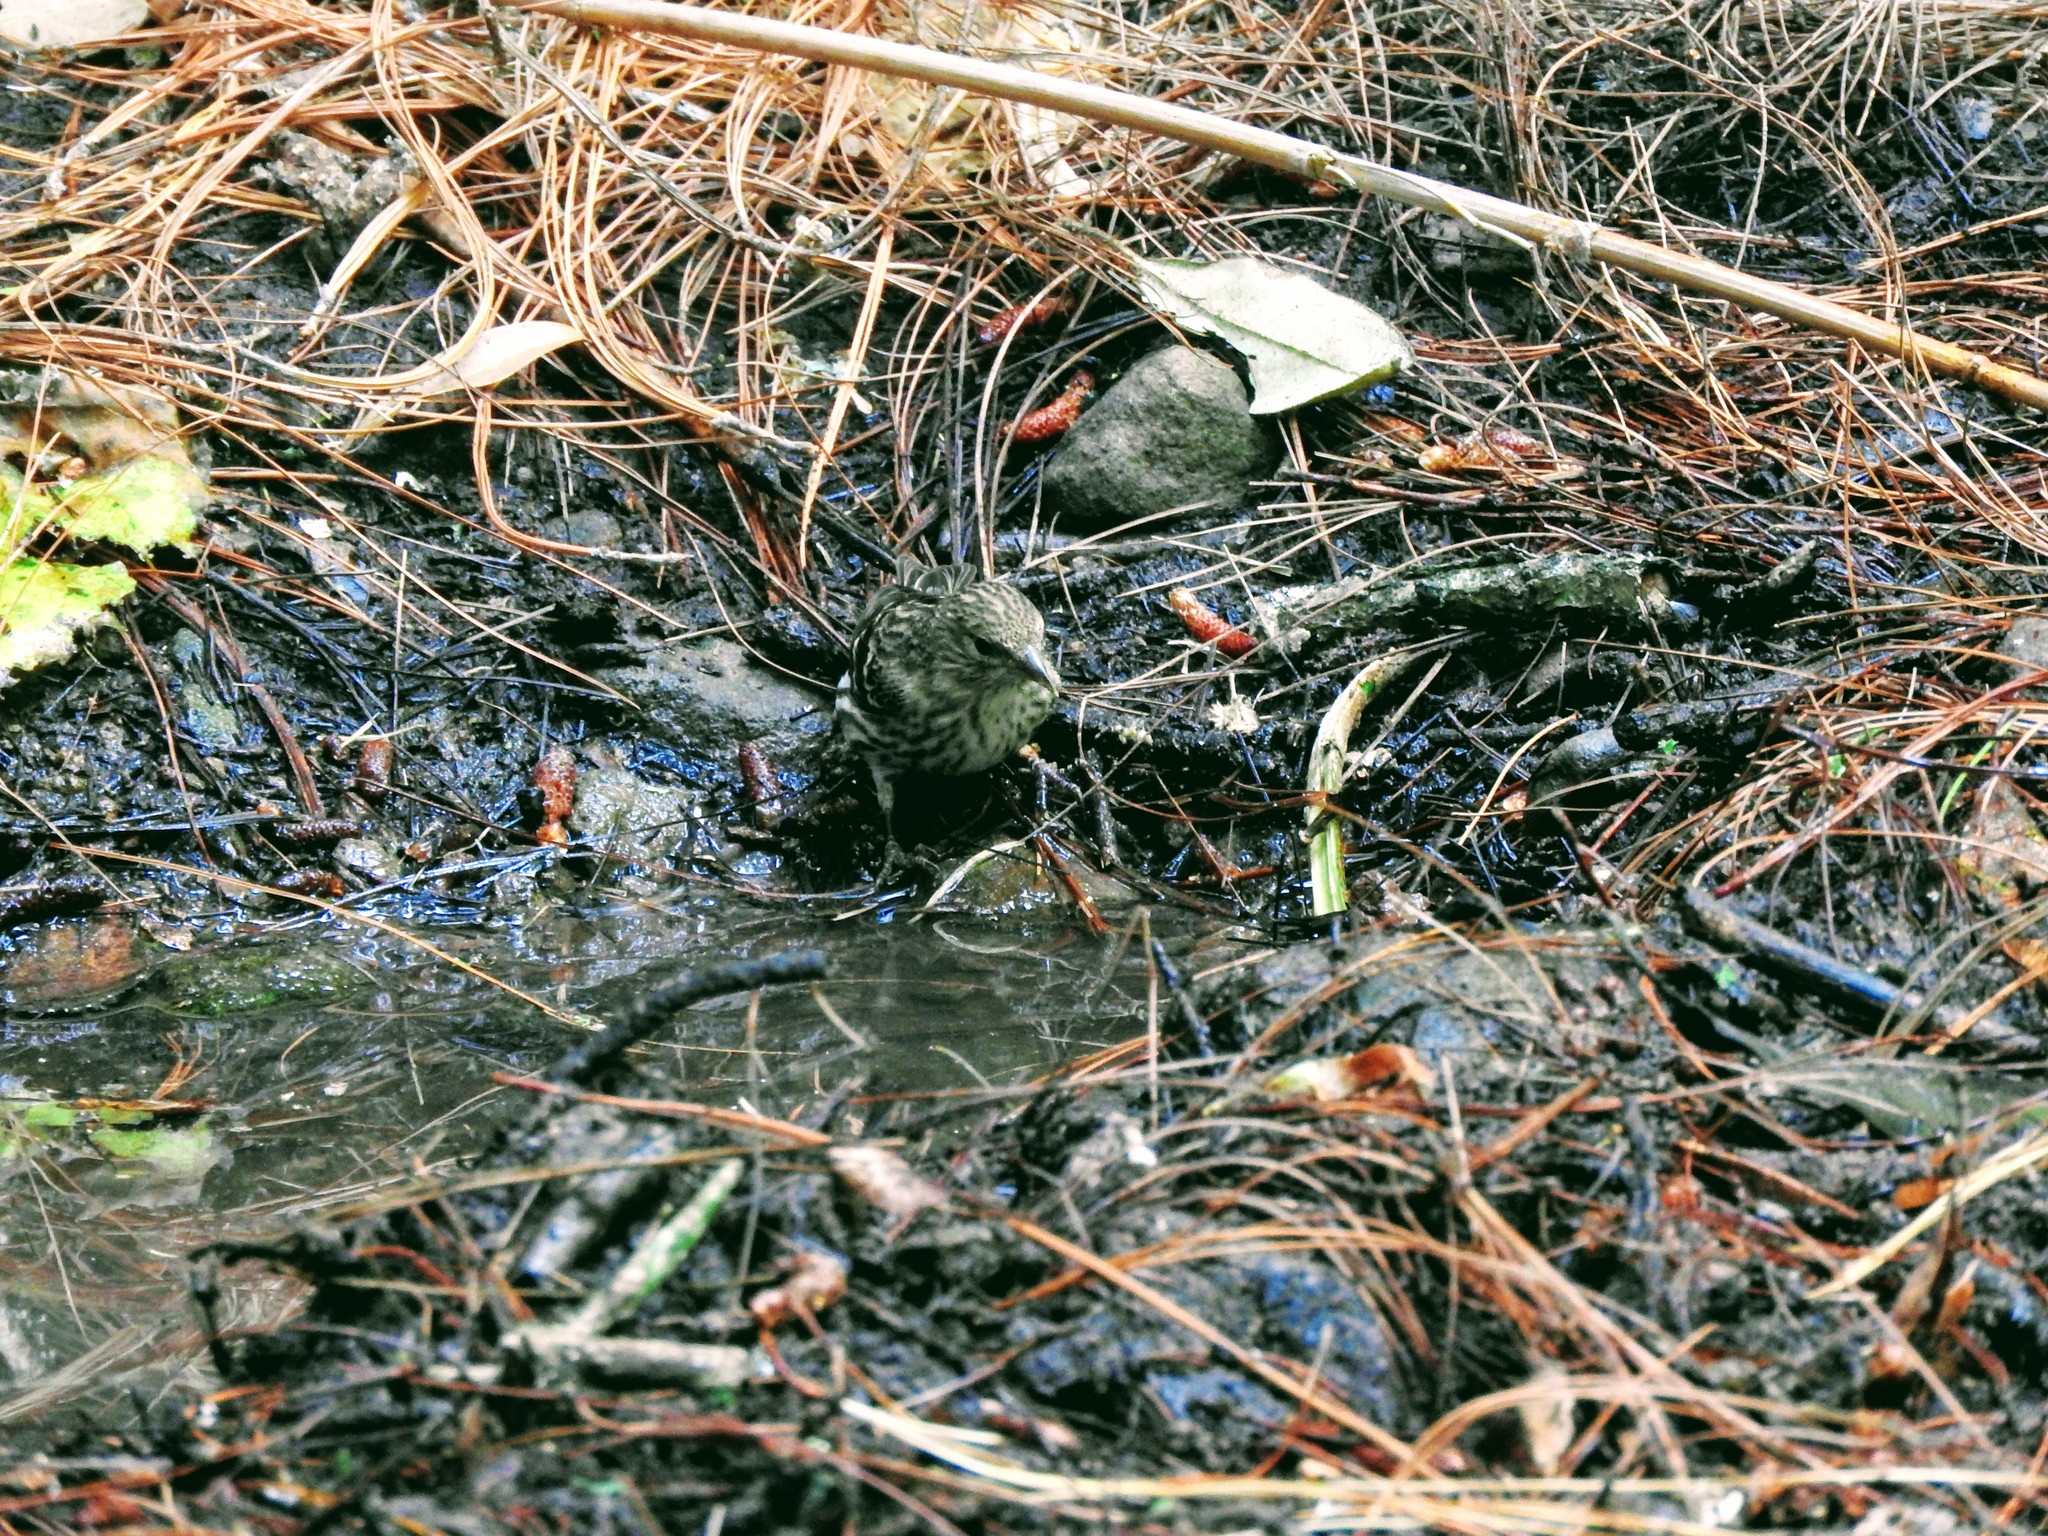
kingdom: Animalia
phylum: Chordata
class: Aves
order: Passeriformes
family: Fringillidae
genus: Spinus
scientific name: Spinus pinus
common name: Pine siskin
